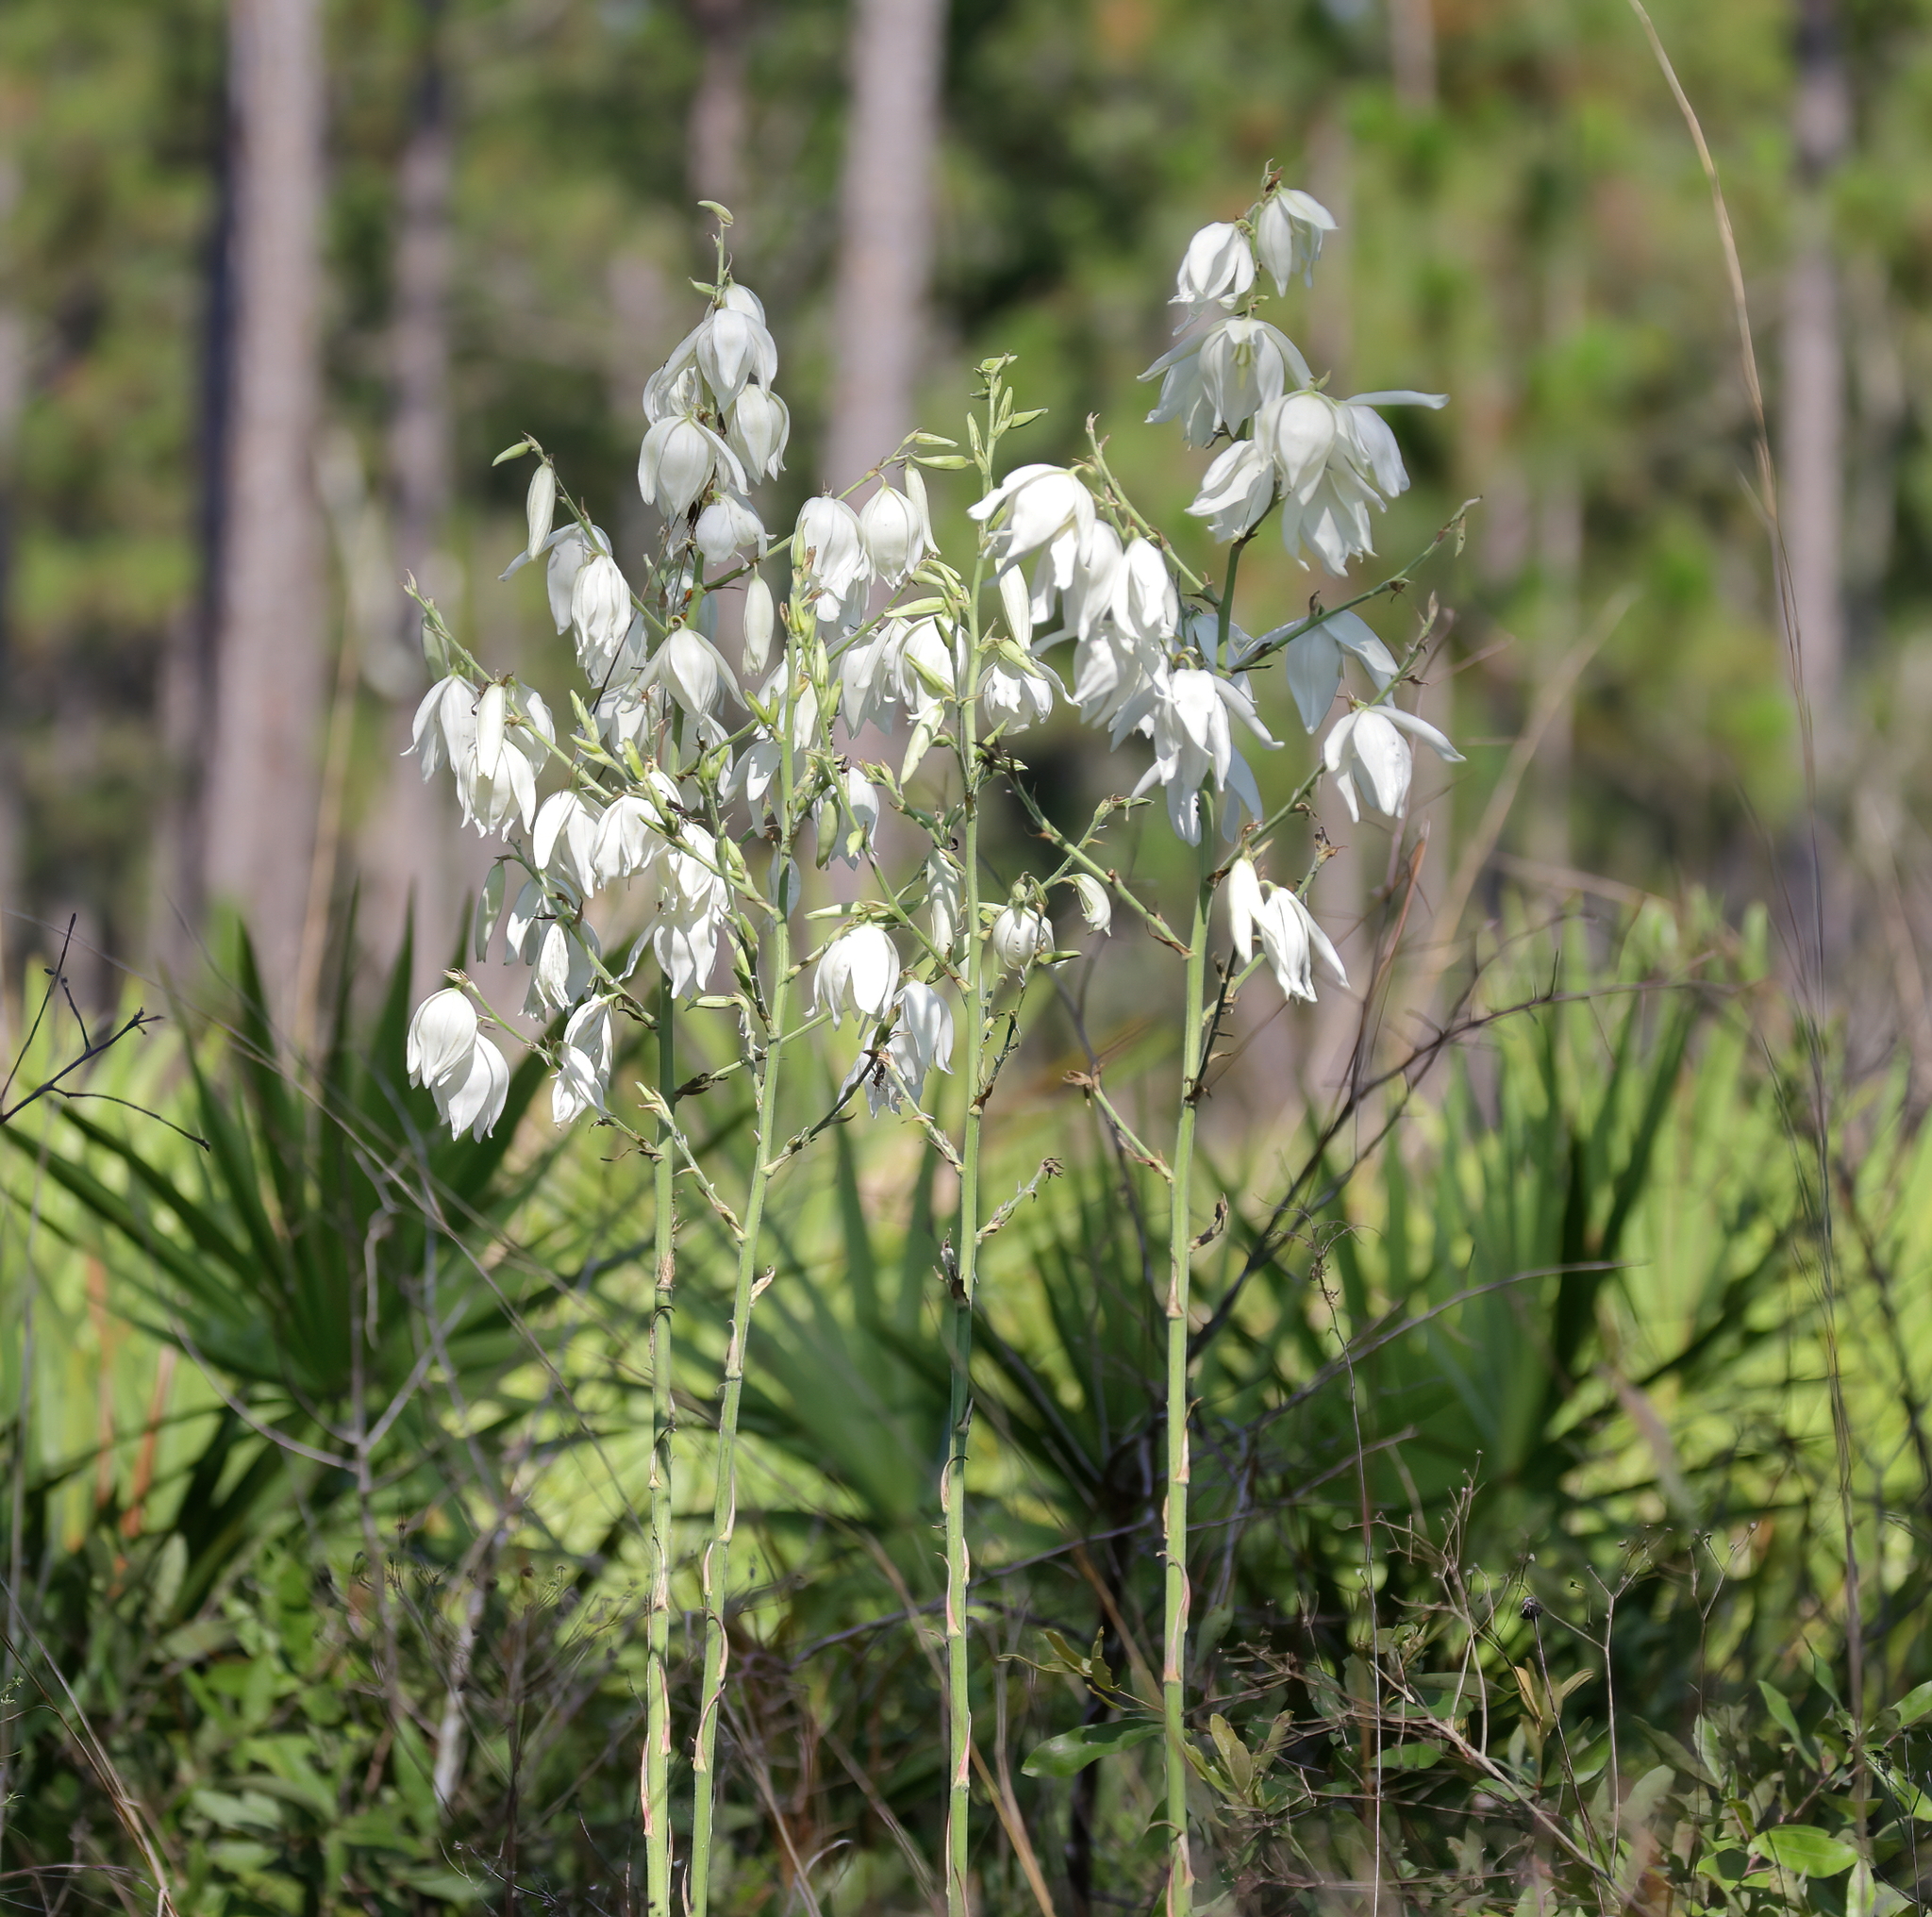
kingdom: Plantae
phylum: Tracheophyta
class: Liliopsida
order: Asparagales
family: Asparagaceae
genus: Yucca
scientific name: Yucca filamentosa
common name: Adam's-needle
